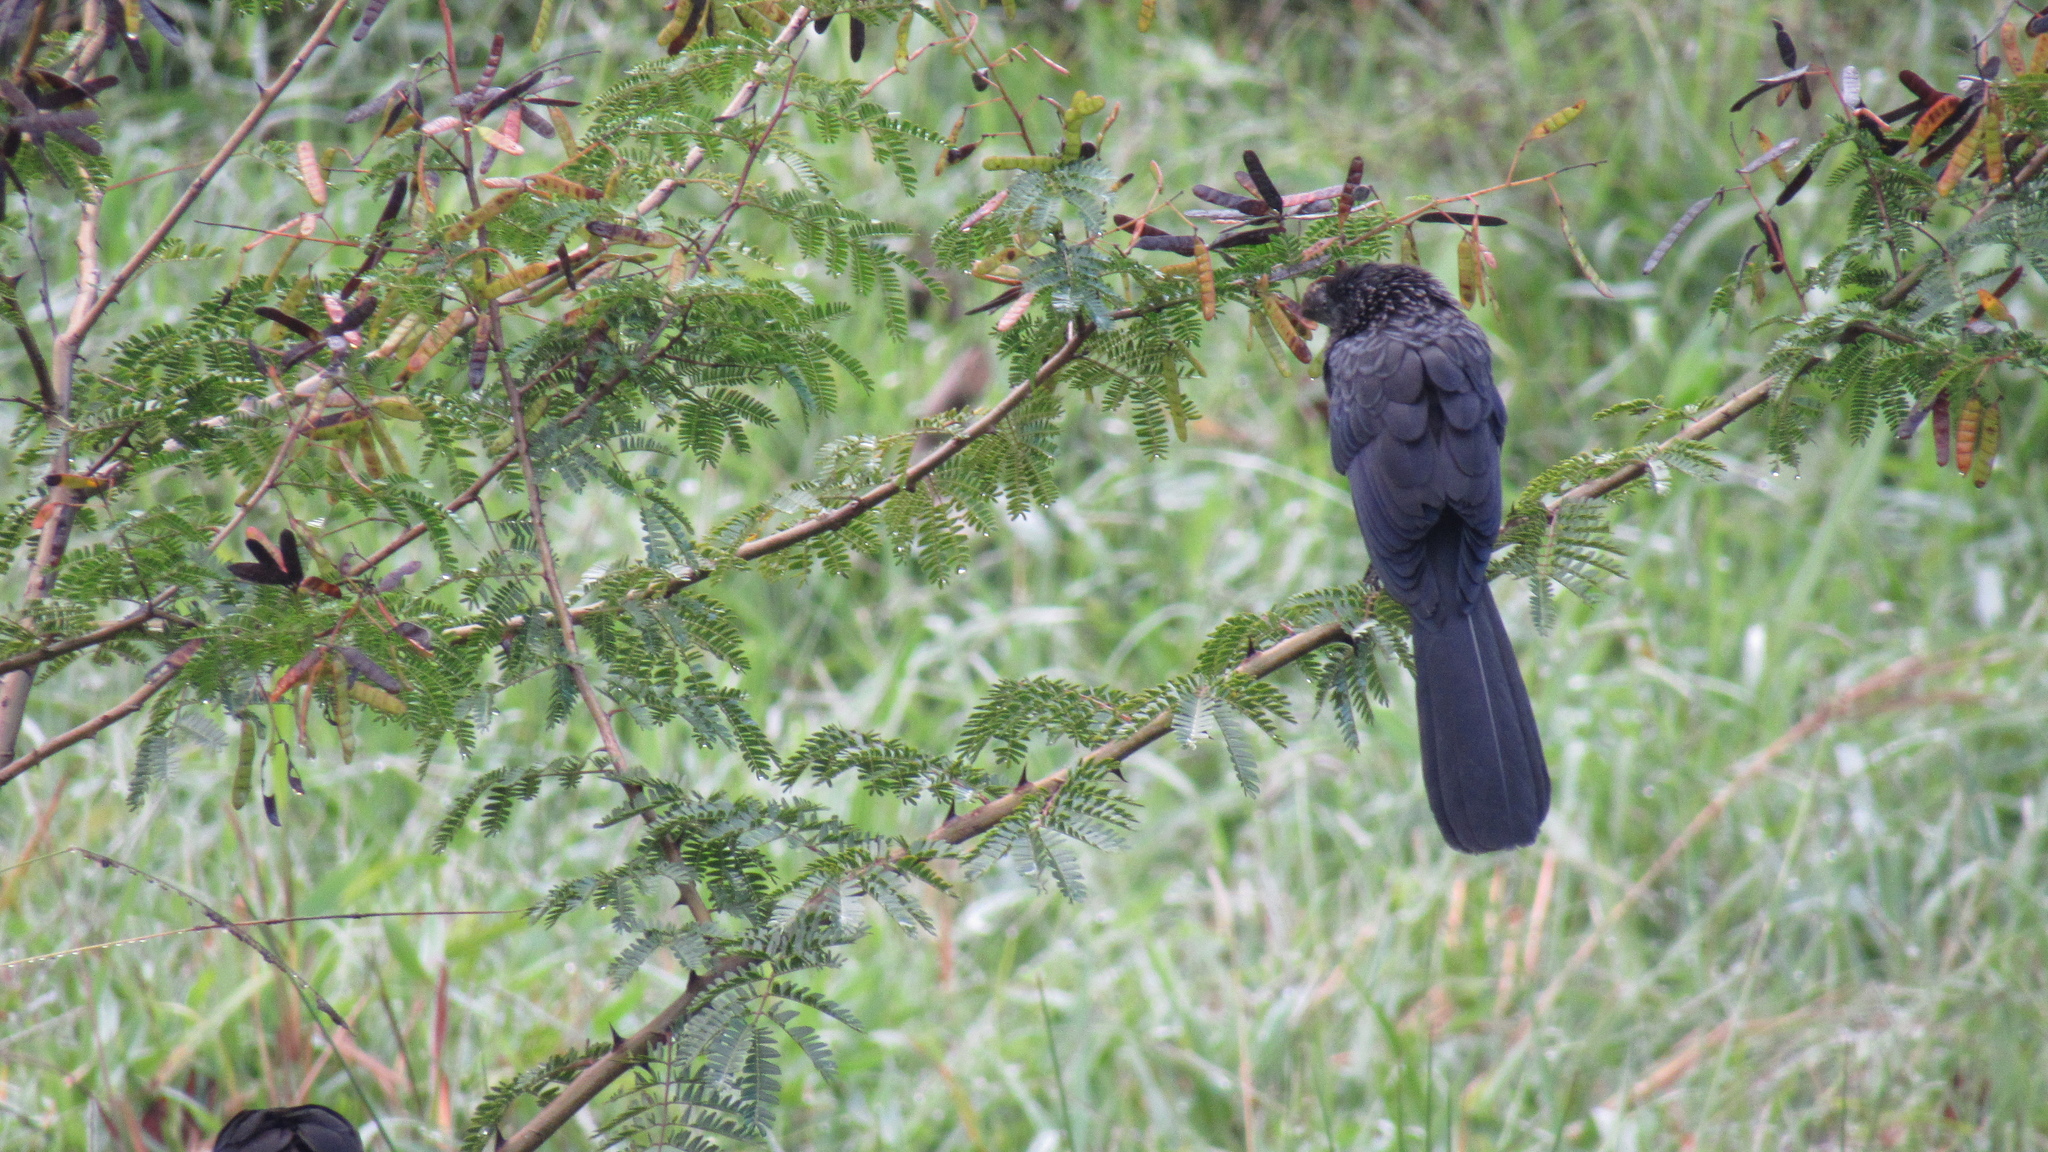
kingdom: Animalia
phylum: Chordata
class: Aves
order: Cuculiformes
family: Cuculidae
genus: Crotophaga
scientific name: Crotophaga ani
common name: Smooth-billed ani
